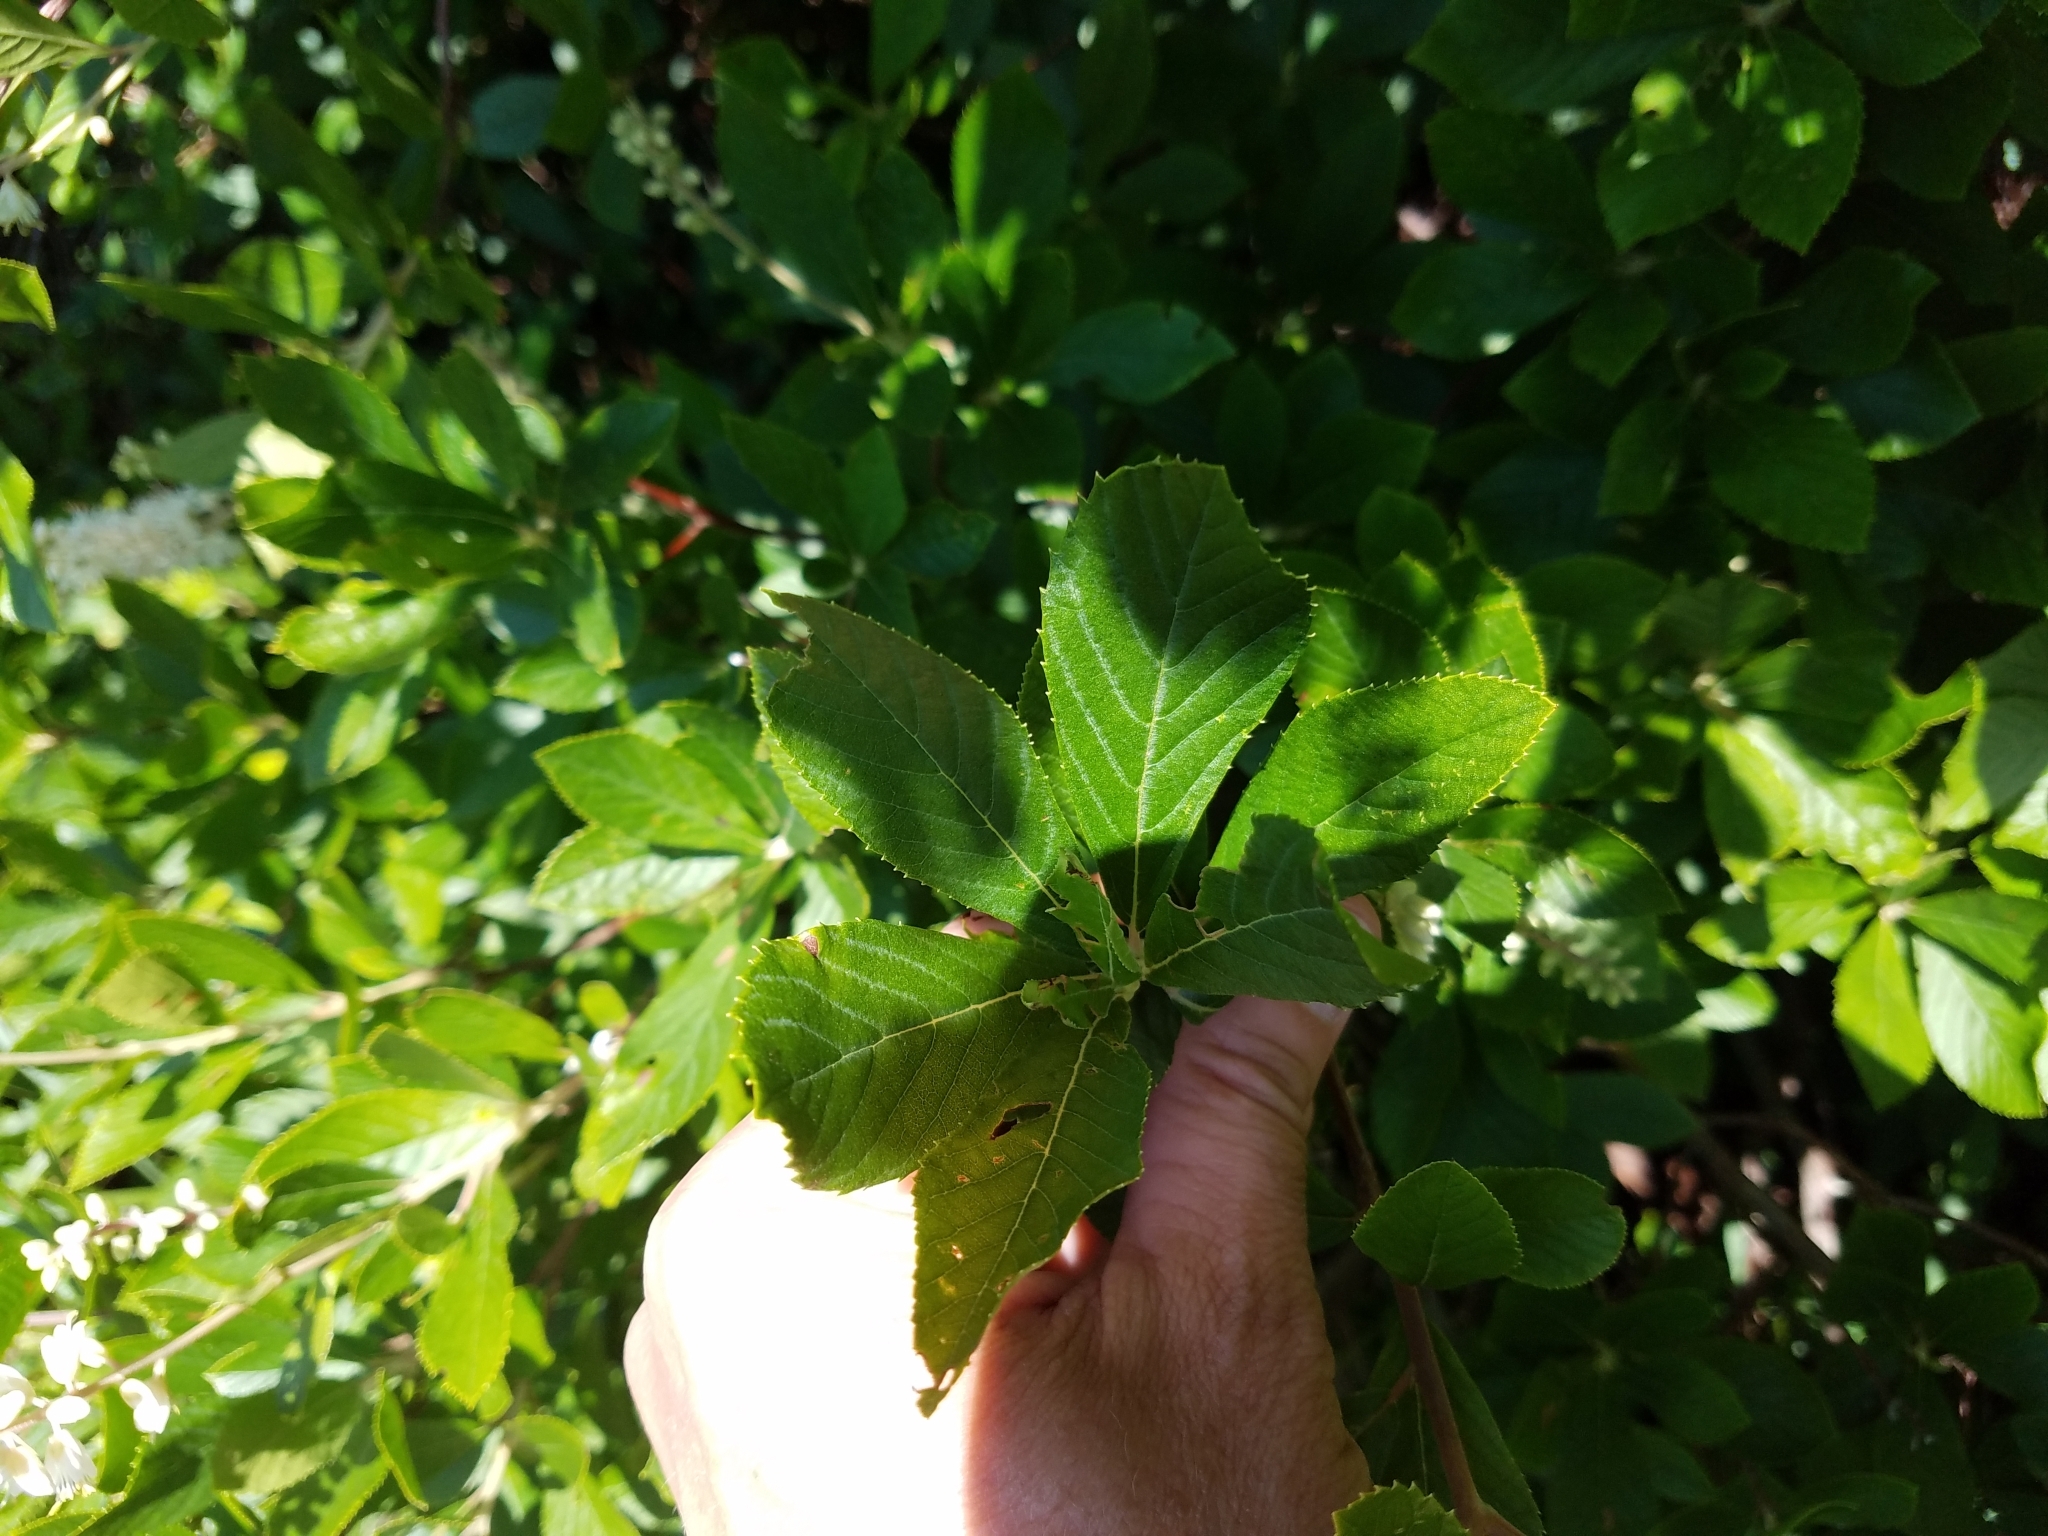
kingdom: Plantae
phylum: Tracheophyta
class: Magnoliopsida
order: Ericales
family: Clethraceae
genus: Clethra
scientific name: Clethra alnifolia
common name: Sweet pepperbush
